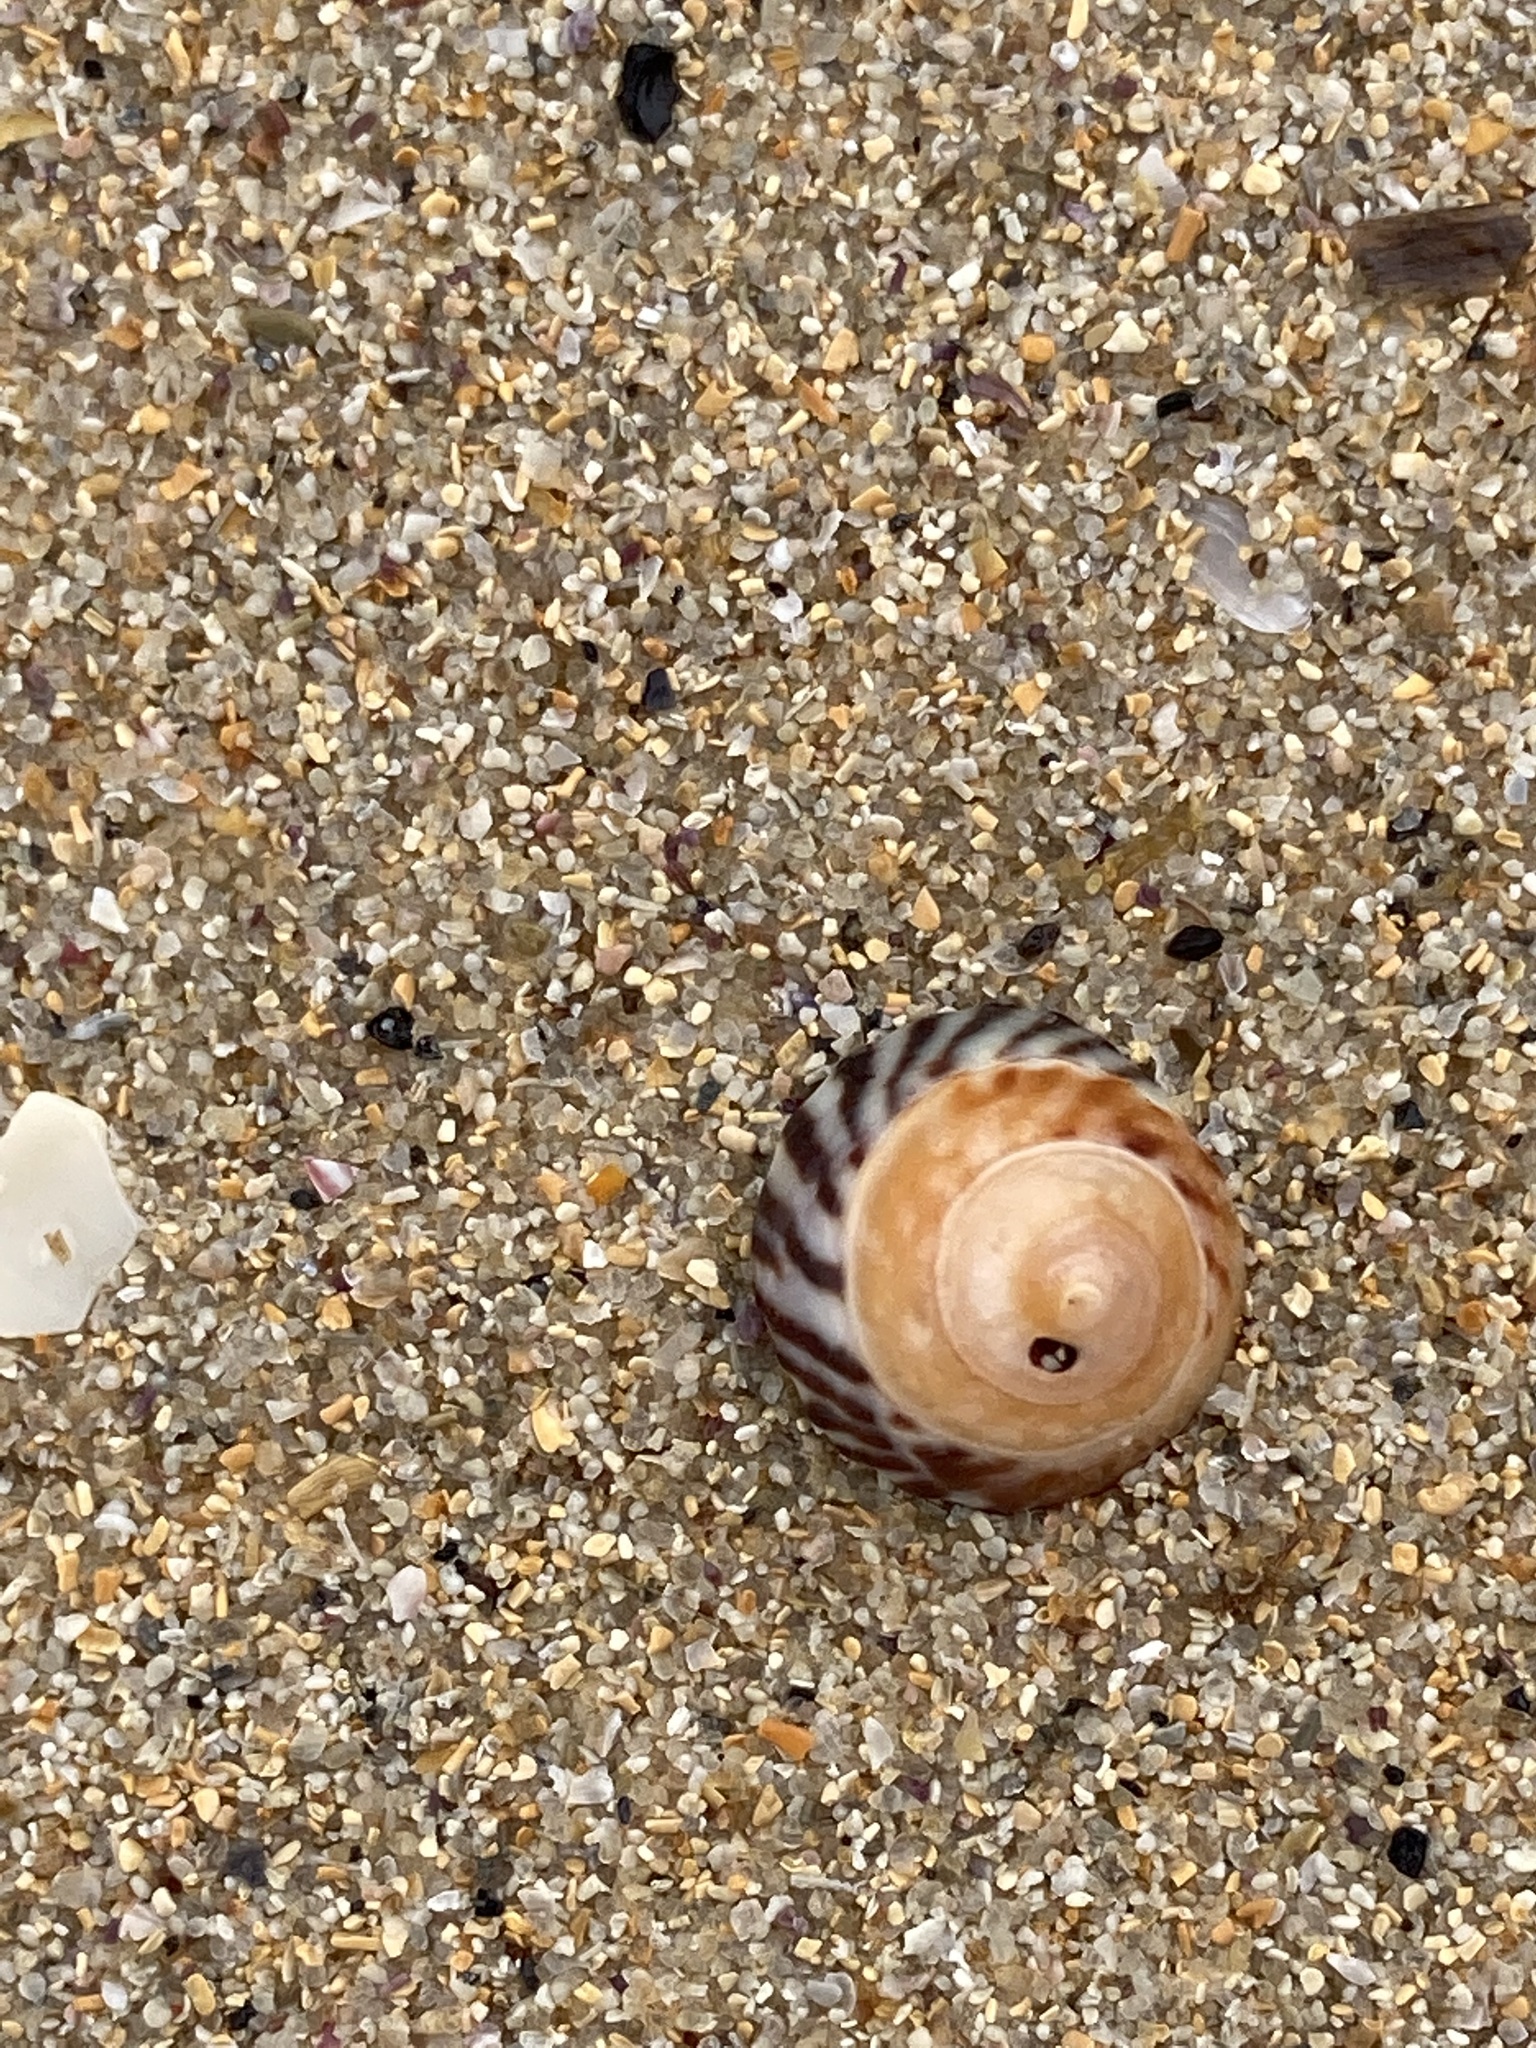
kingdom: Animalia
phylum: Mollusca
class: Gastropoda
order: Littorinimorpha
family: Littorinidae
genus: Bembicium
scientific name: Bembicium nanum
